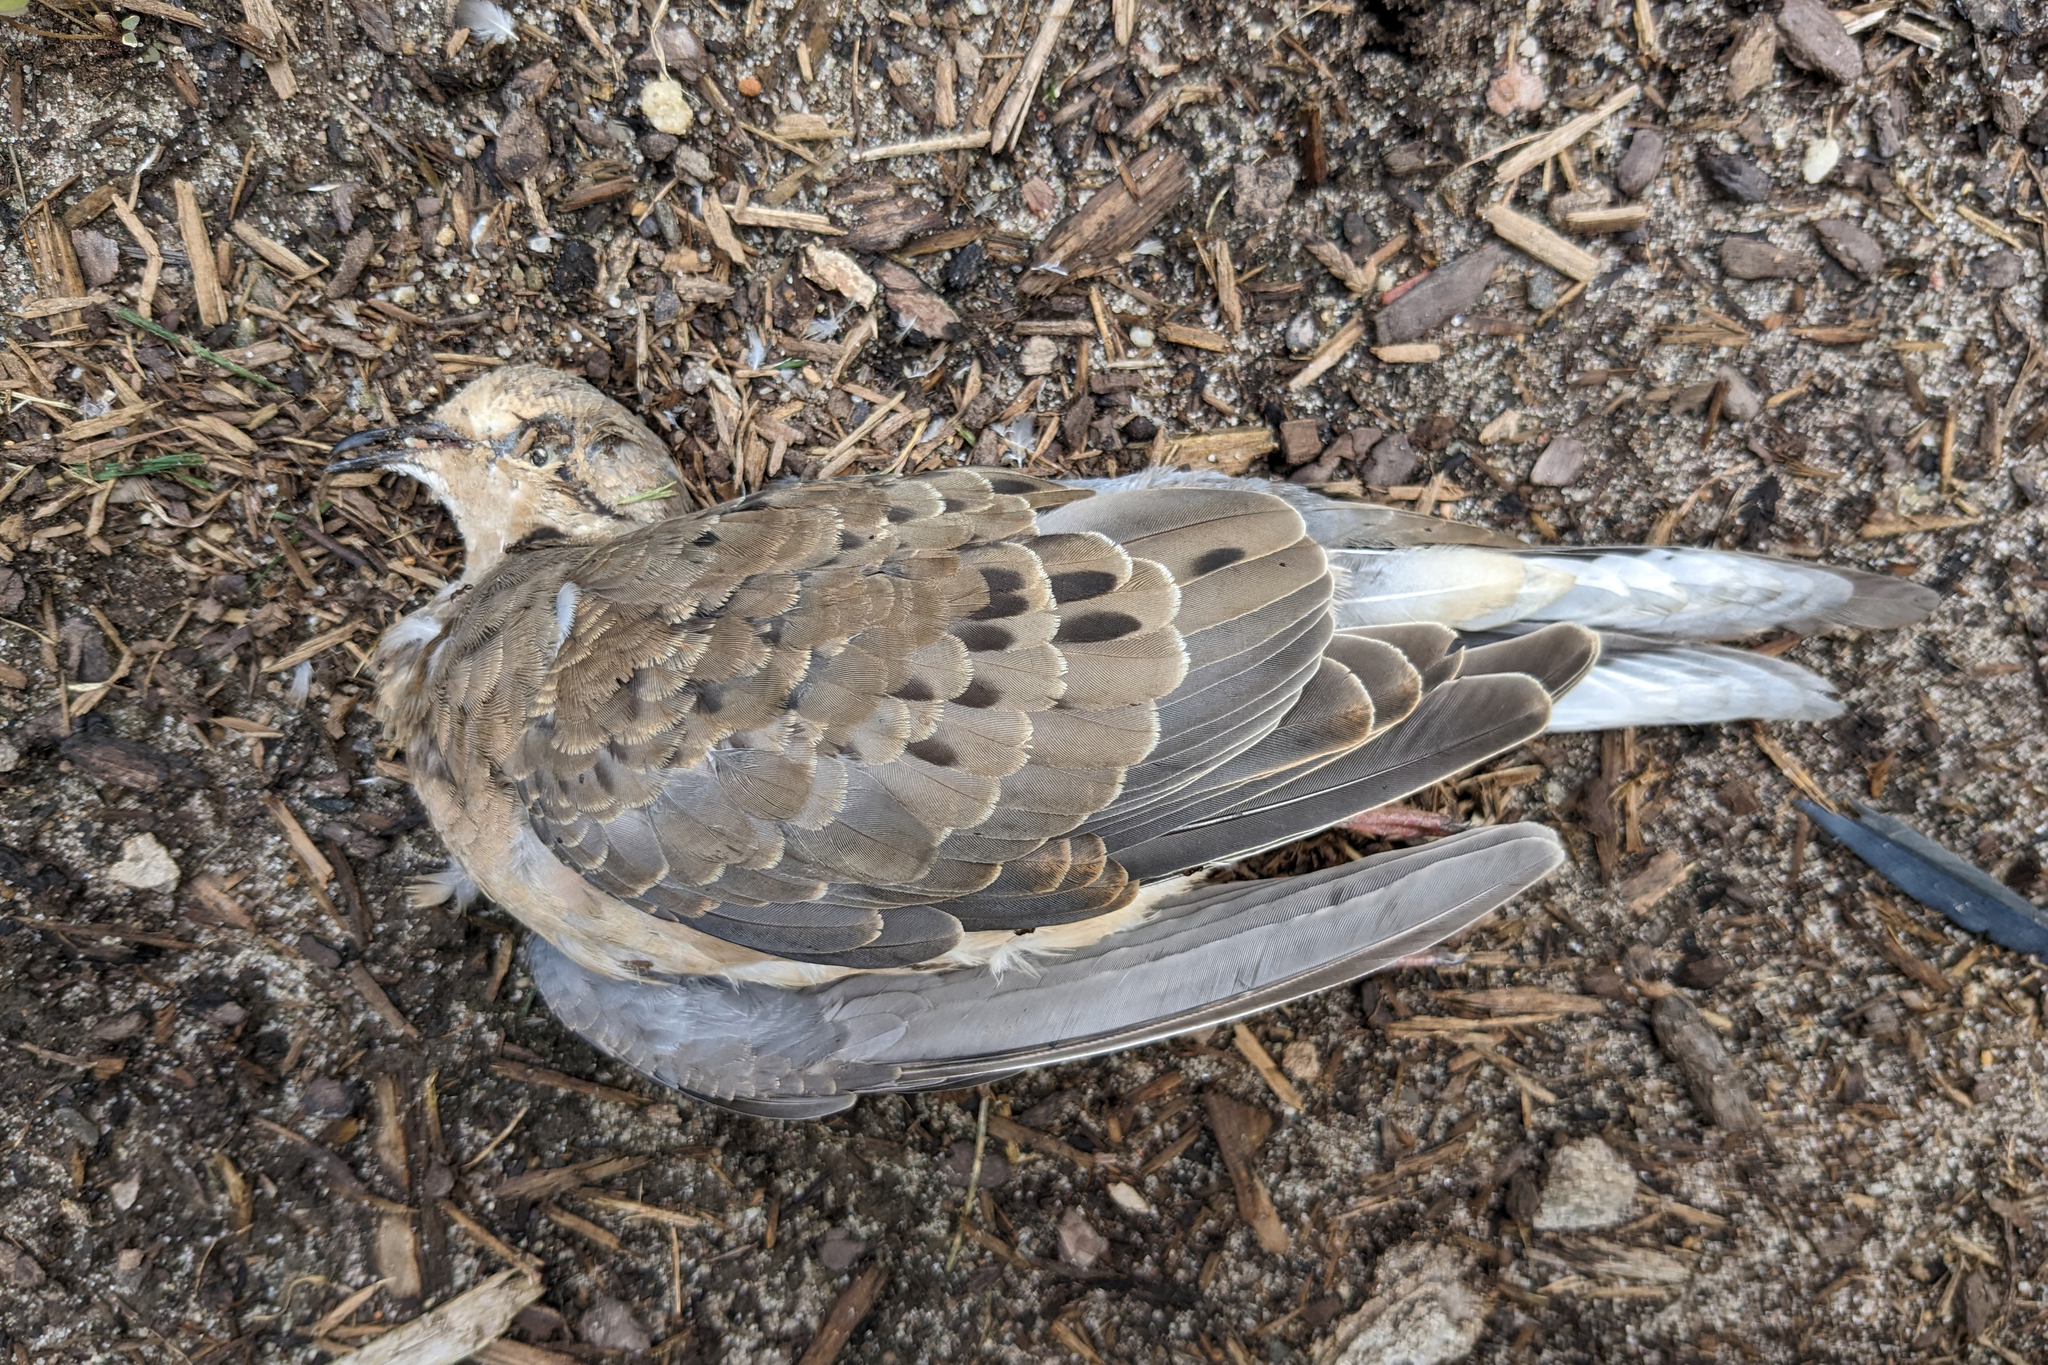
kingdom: Animalia
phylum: Chordata
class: Aves
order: Columbiformes
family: Columbidae
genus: Zenaida
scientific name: Zenaida macroura
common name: Mourning dove
